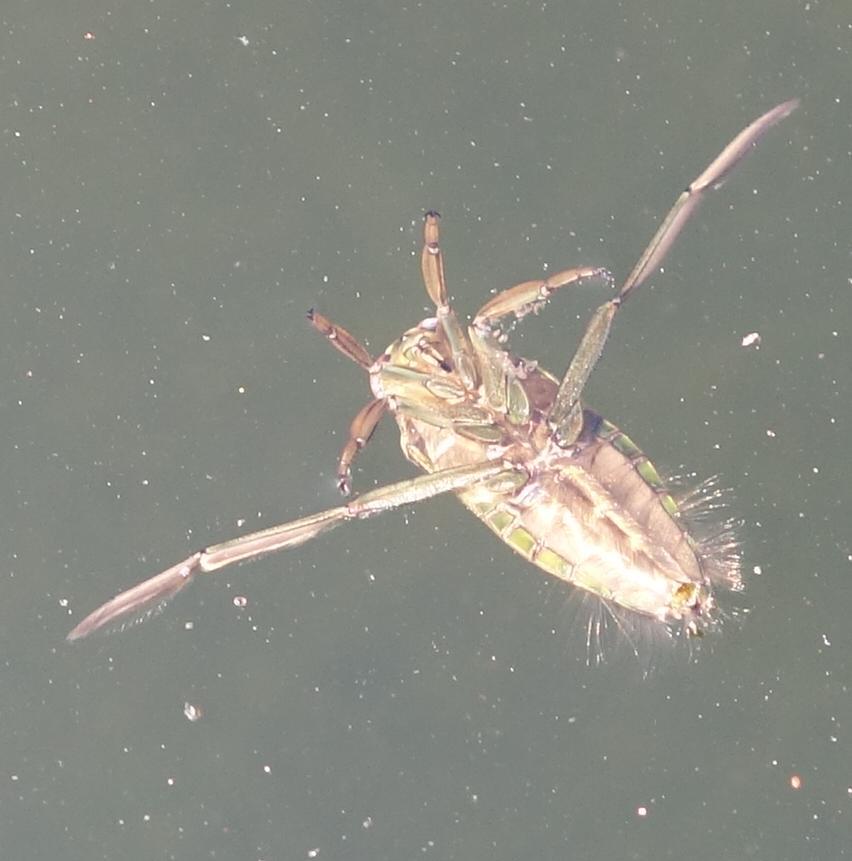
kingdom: Animalia
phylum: Arthropoda
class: Insecta
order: Hemiptera
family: Notonectidae
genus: Notonecta
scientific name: Notonecta
